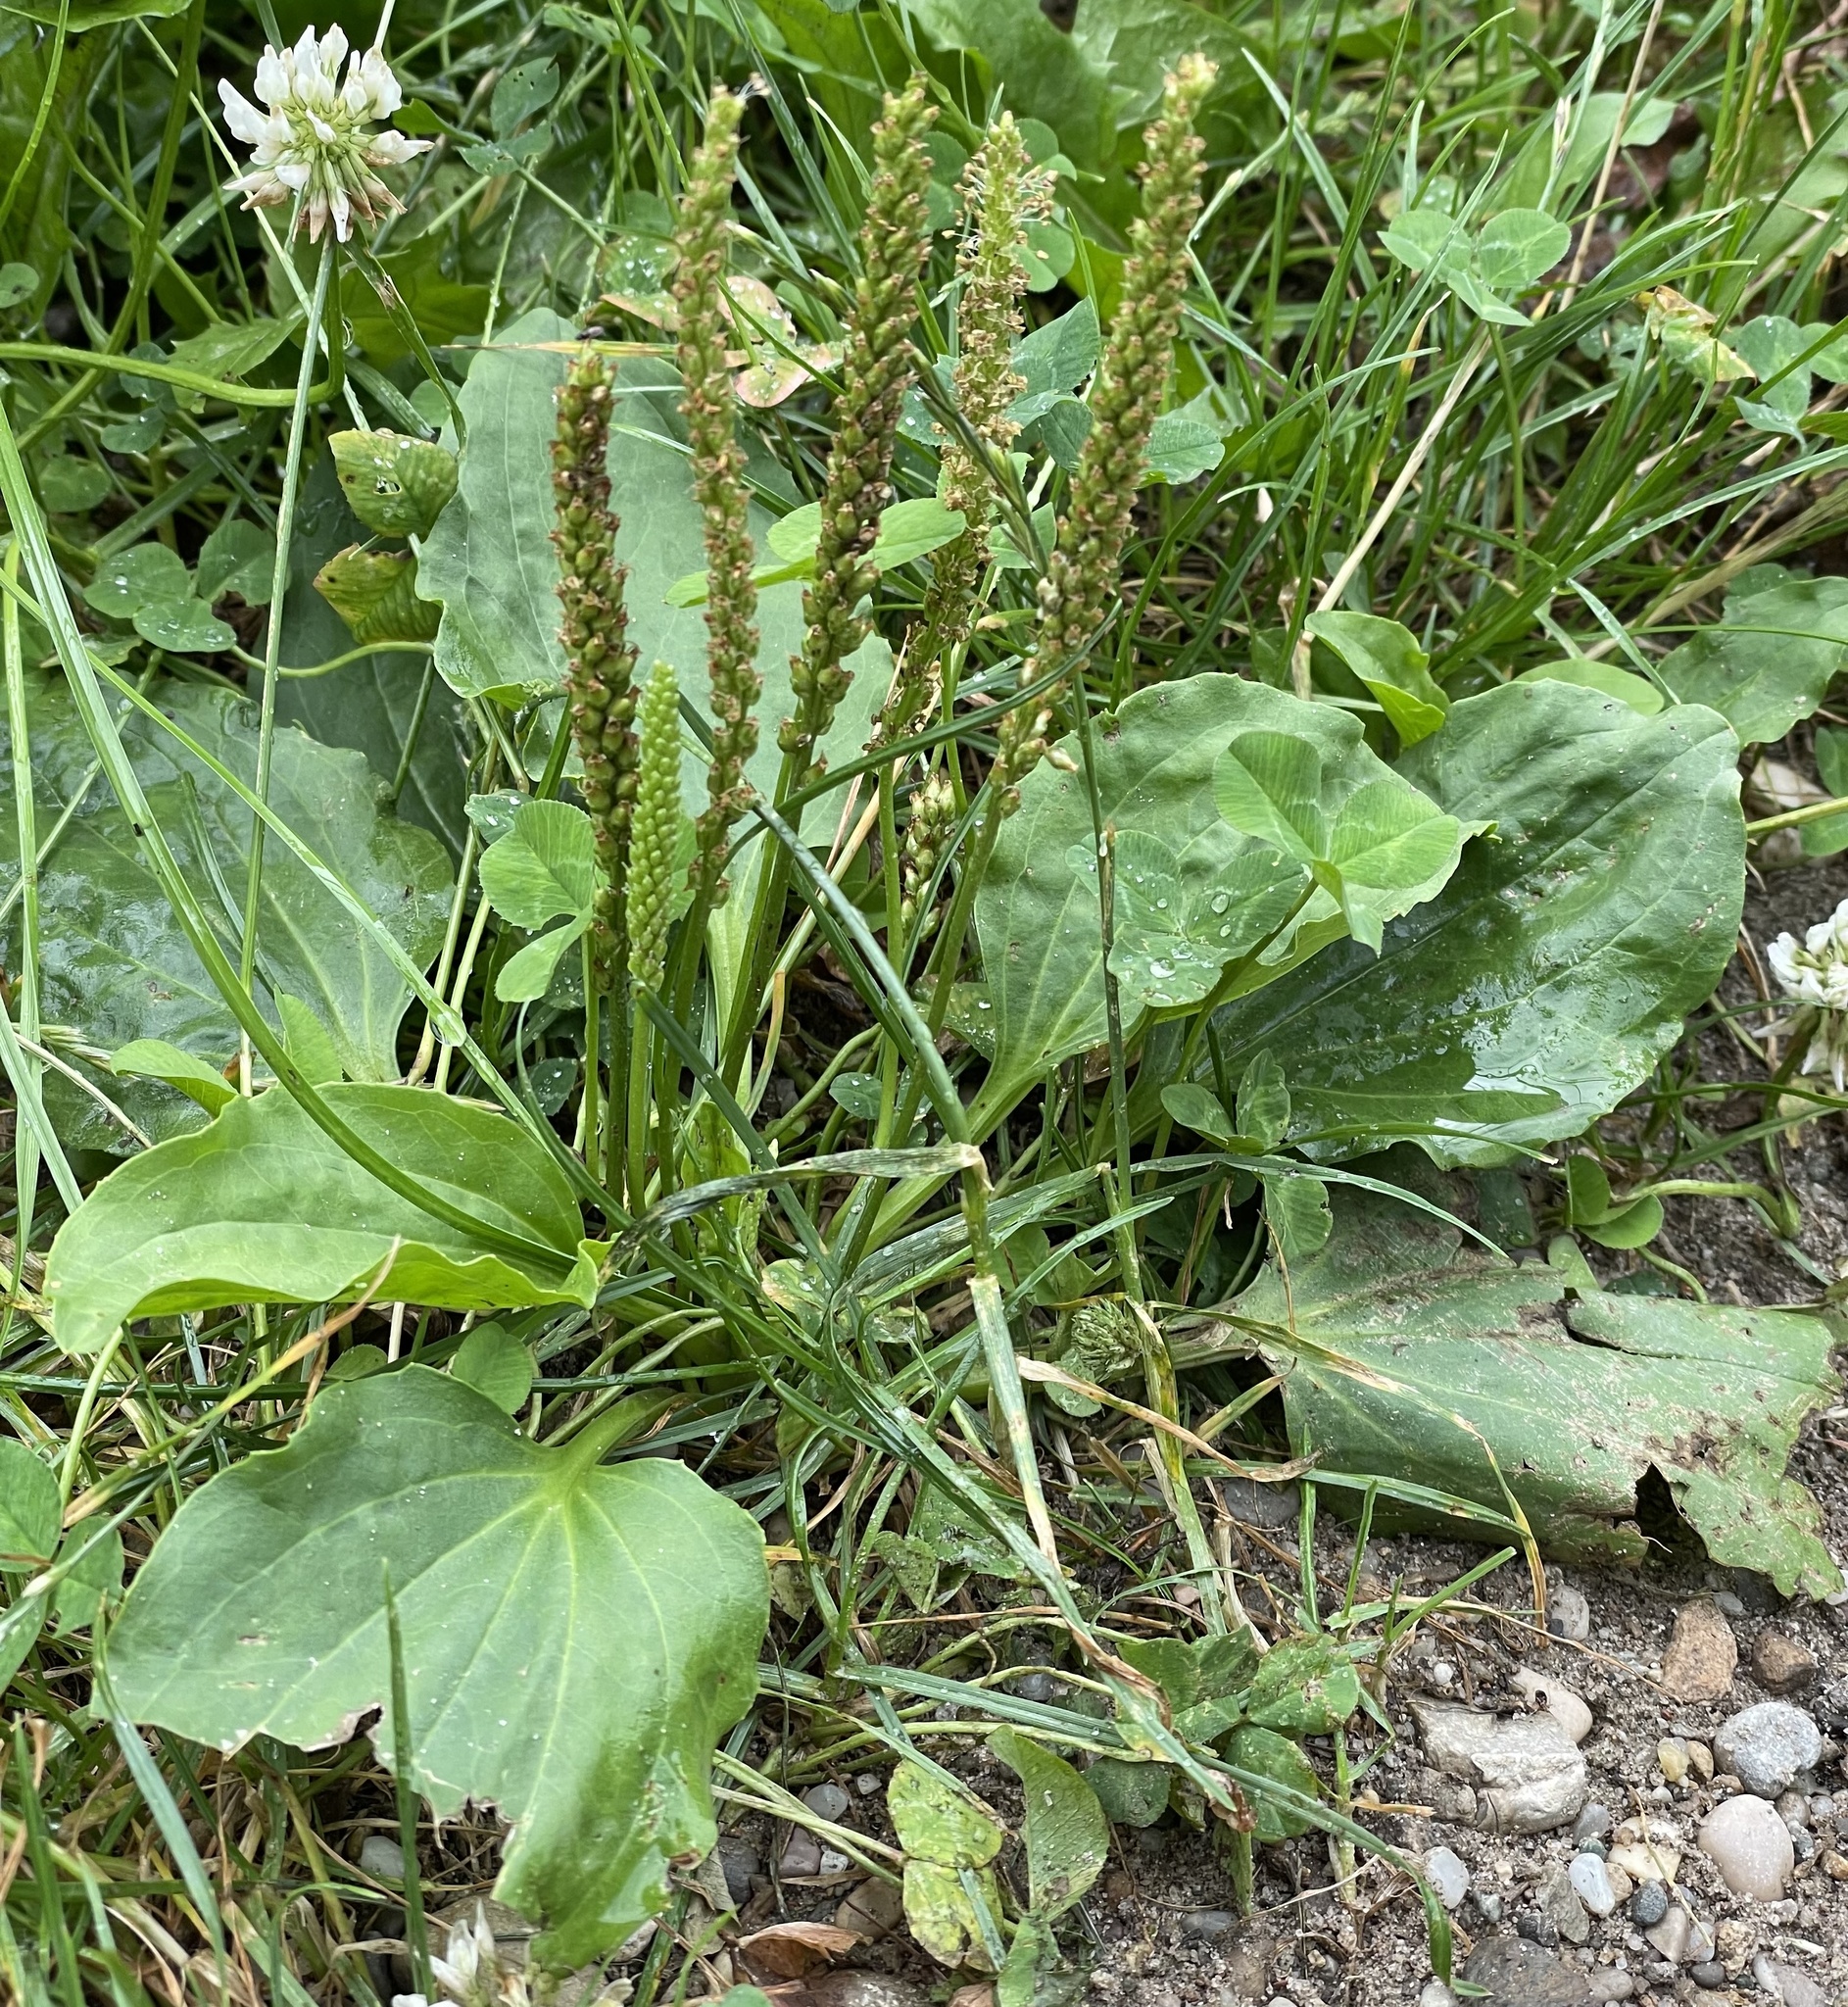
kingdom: Plantae
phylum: Tracheophyta
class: Magnoliopsida
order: Lamiales
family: Plantaginaceae
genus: Plantago
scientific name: Plantago major
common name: Common plantain
